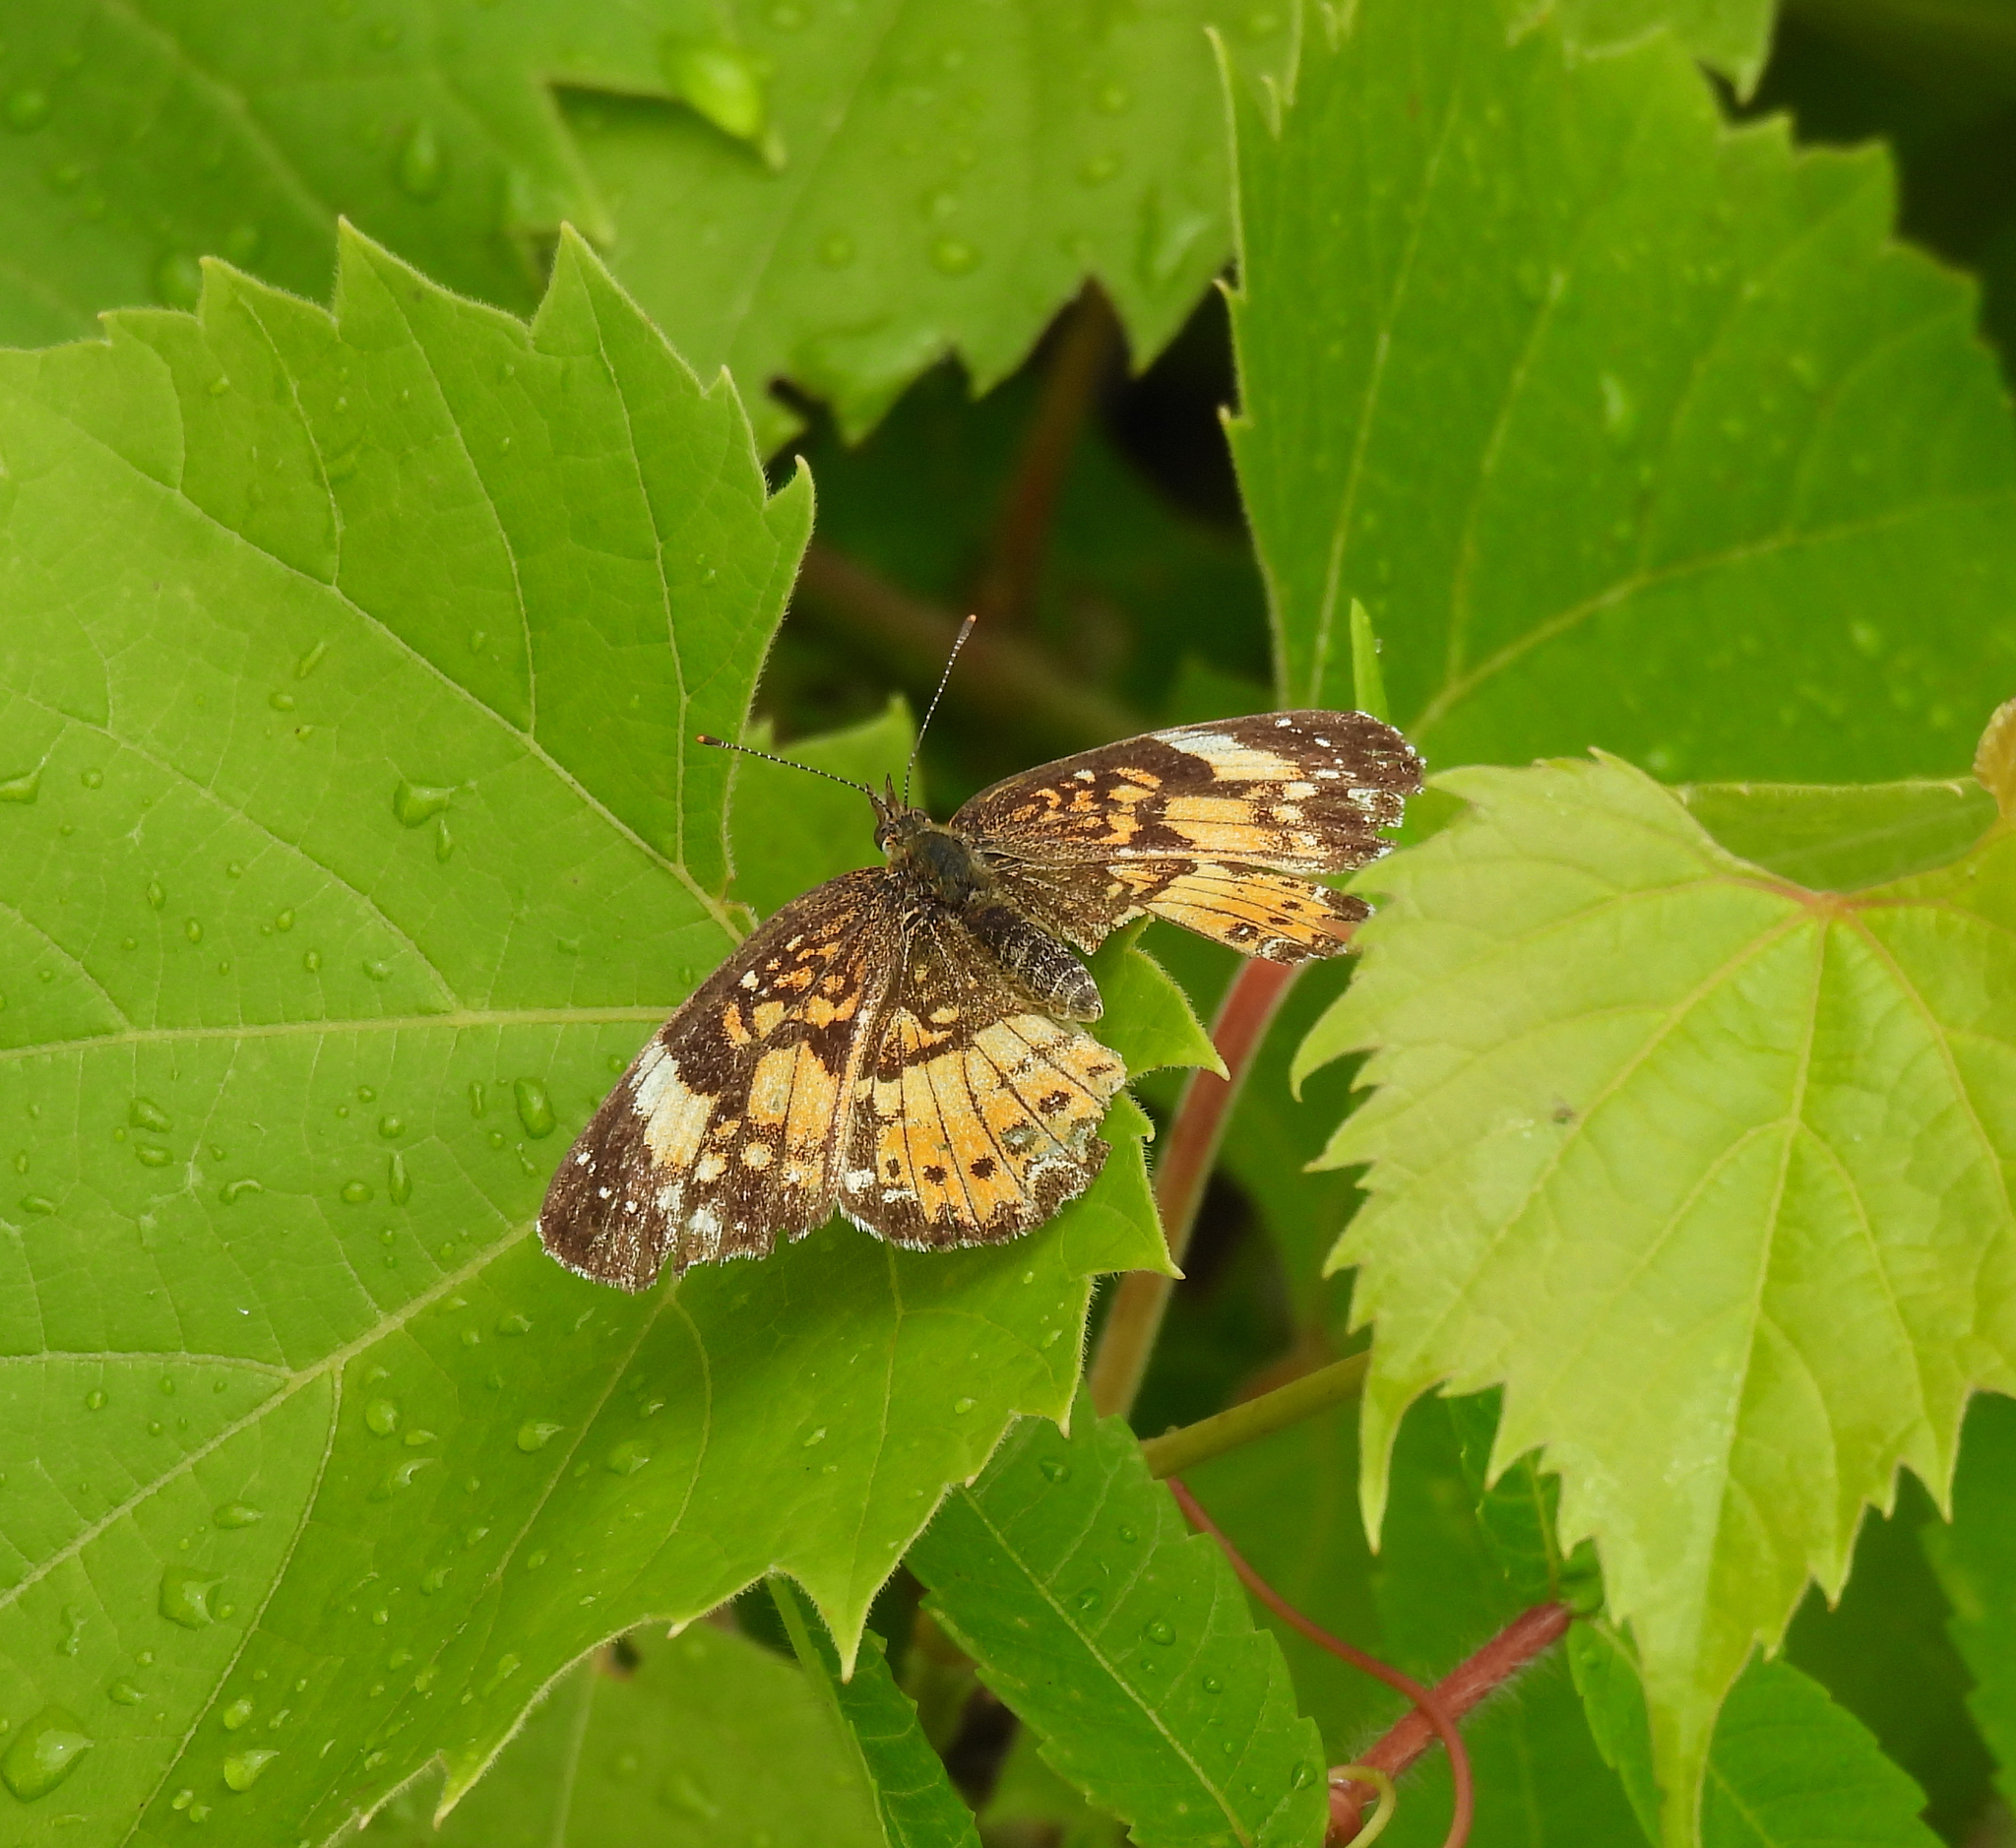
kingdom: Animalia
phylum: Arthropoda
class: Insecta
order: Lepidoptera
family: Nymphalidae
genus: Chlosyne
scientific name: Chlosyne nycteis
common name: Silvery checkerspot
